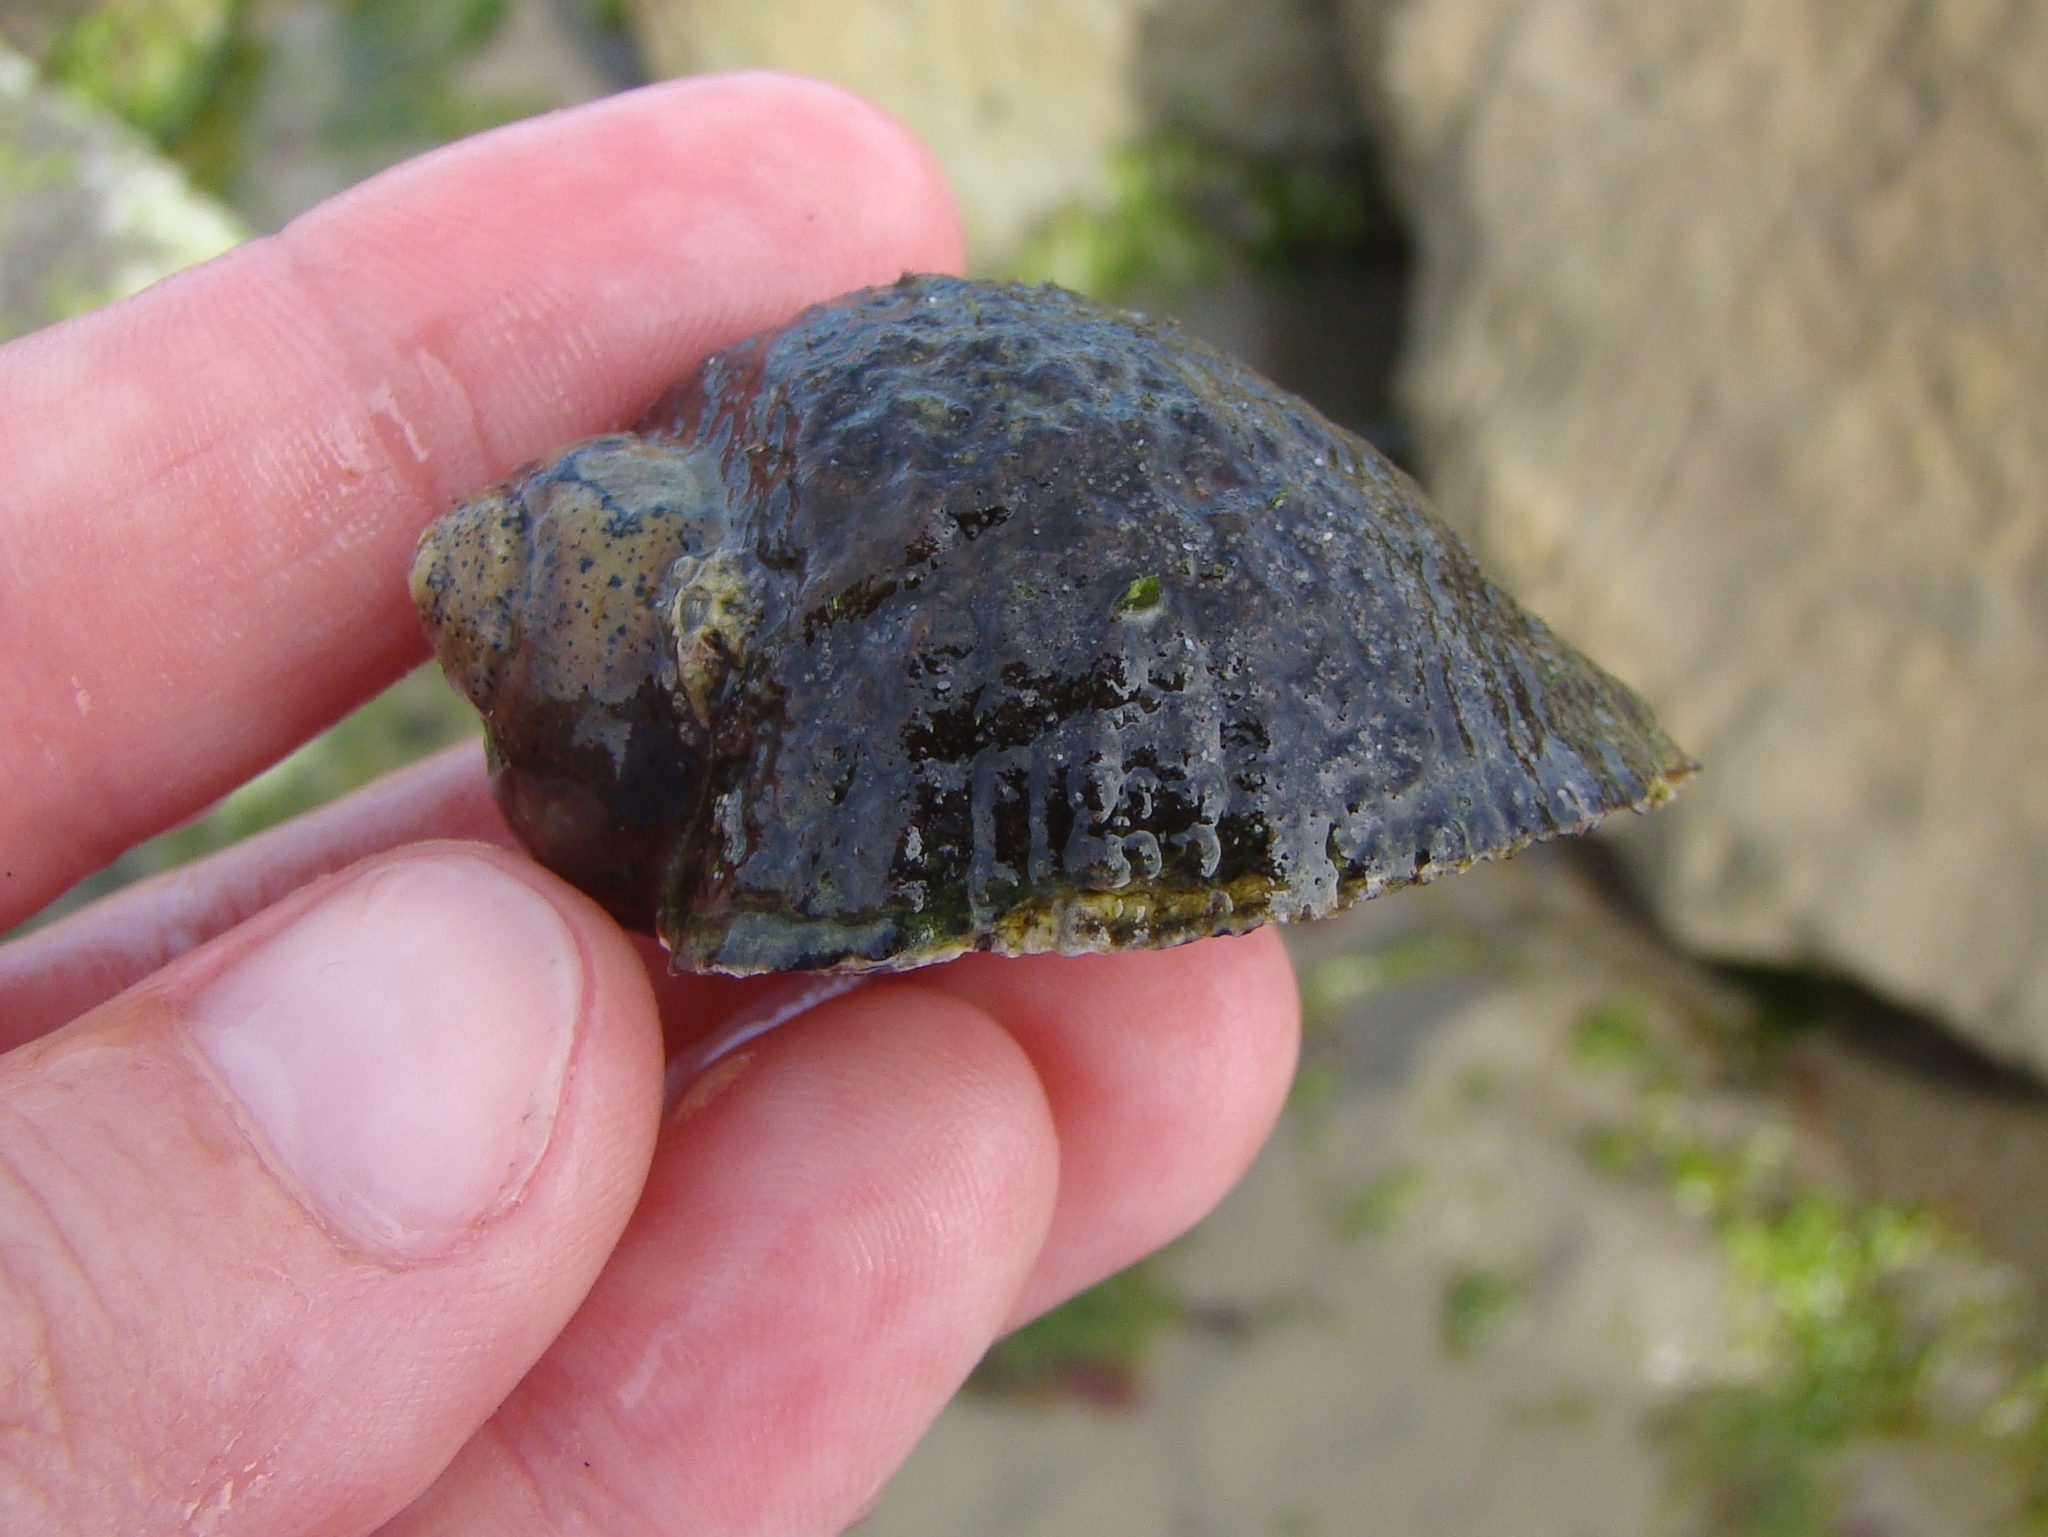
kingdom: Animalia
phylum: Mollusca
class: Gastropoda
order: Neogastropoda
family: Muricidae
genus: Haustrum
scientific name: Haustrum haustorium
